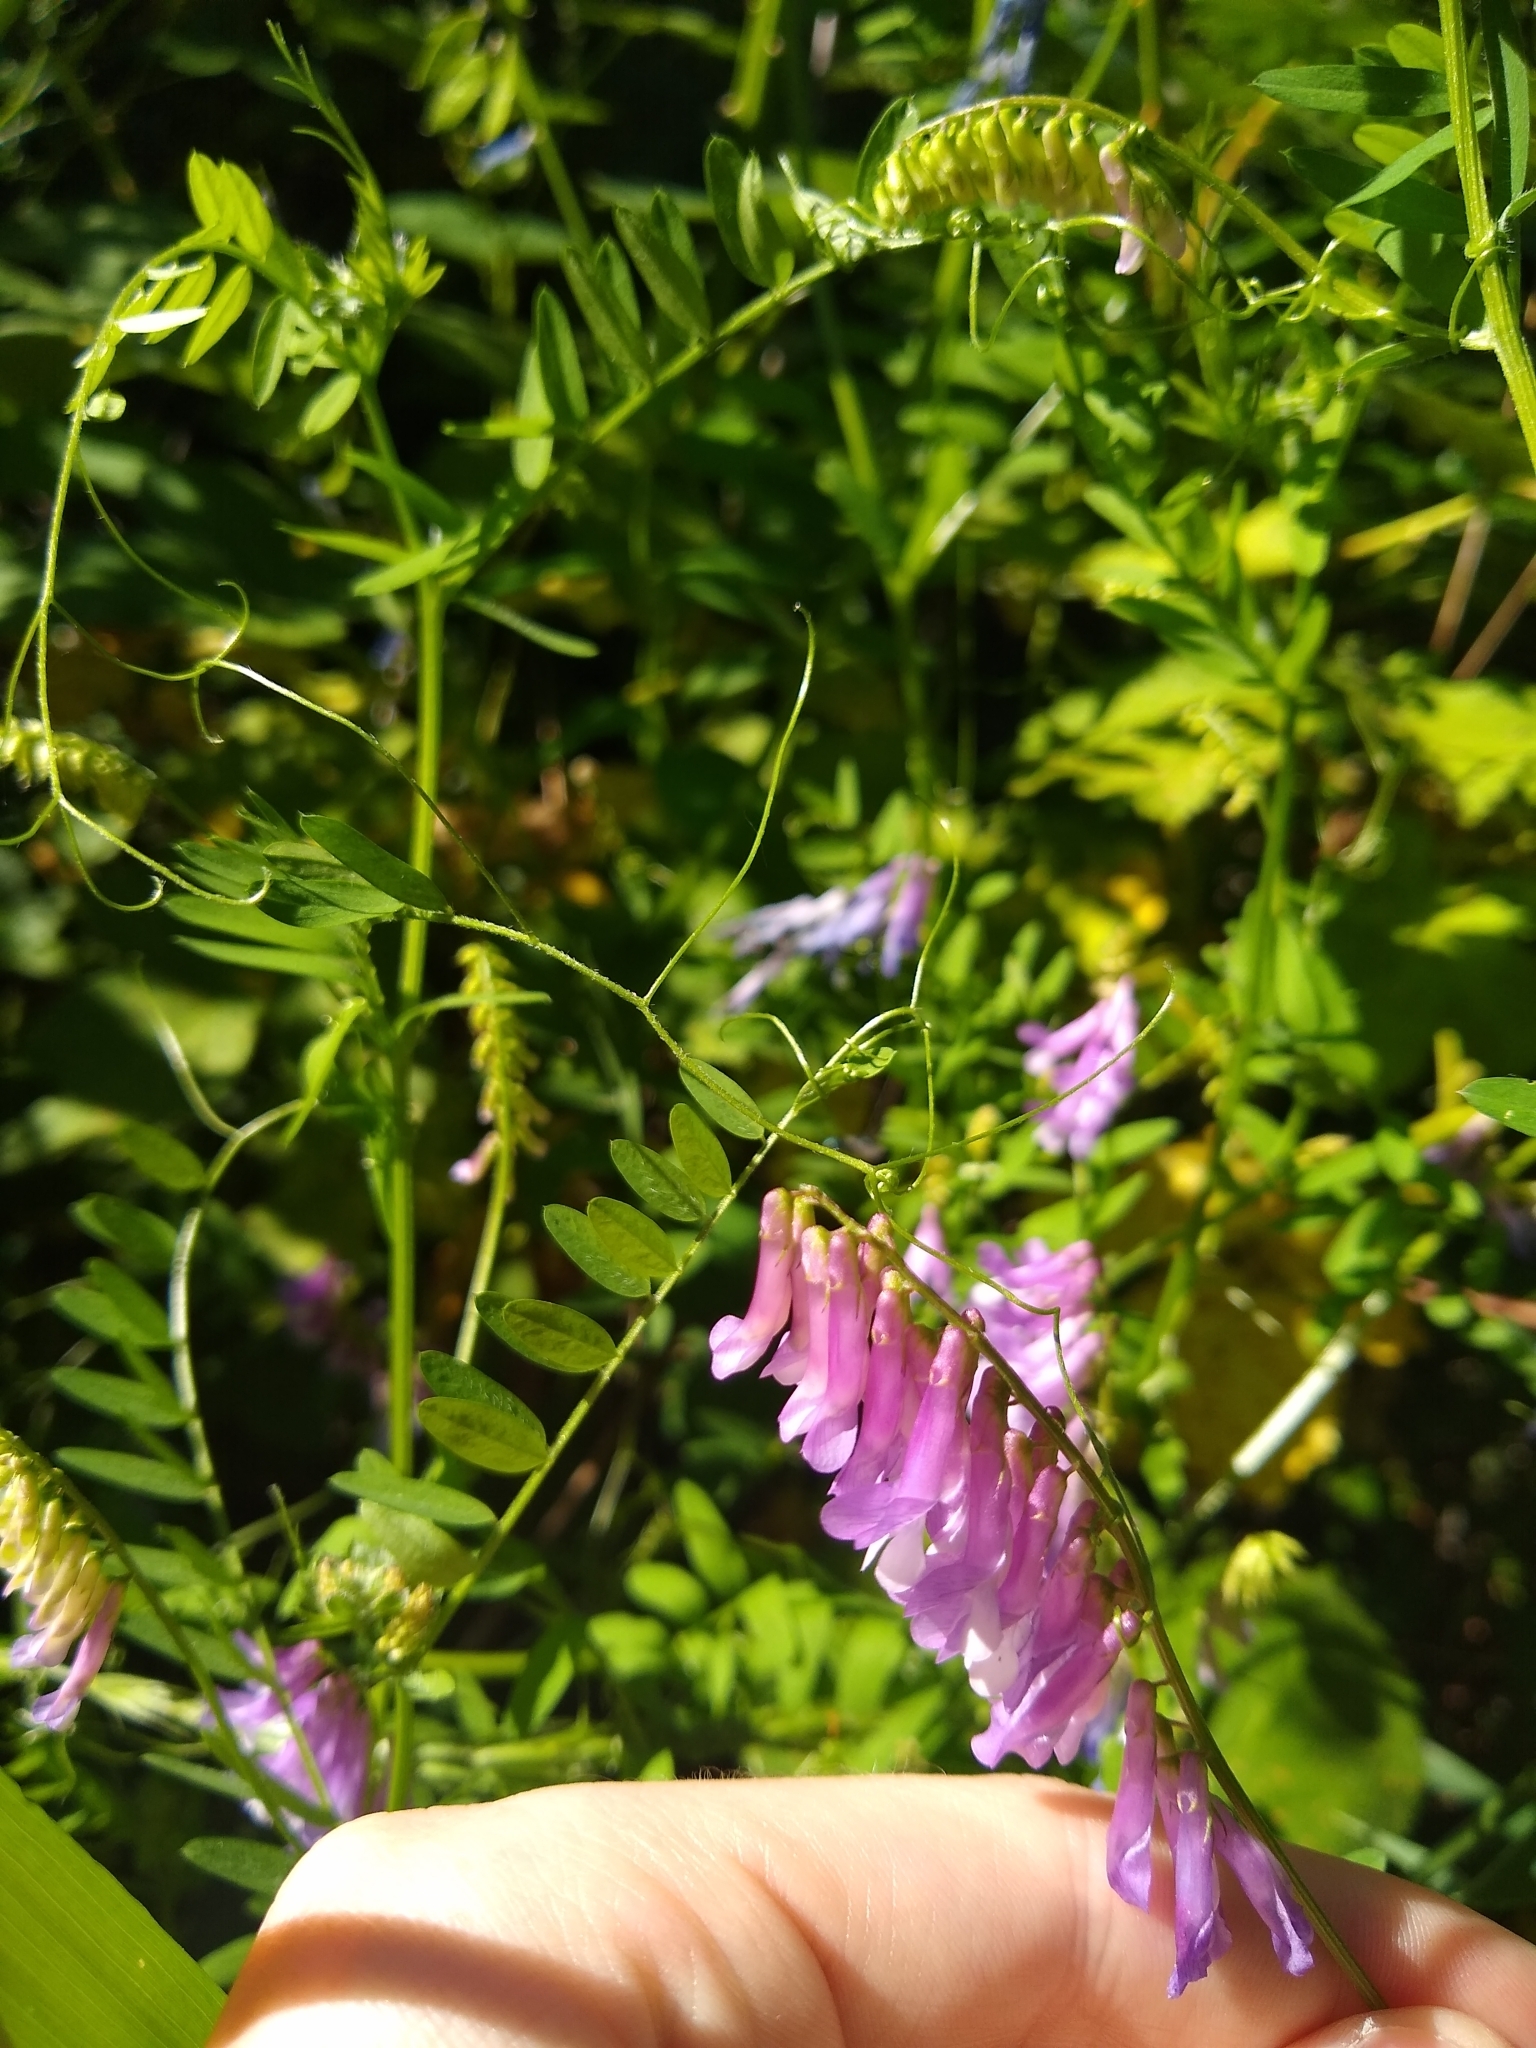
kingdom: Plantae
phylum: Tracheophyta
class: Magnoliopsida
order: Fabales
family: Fabaceae
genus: Vicia
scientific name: Vicia villosa
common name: Fodder vetch
